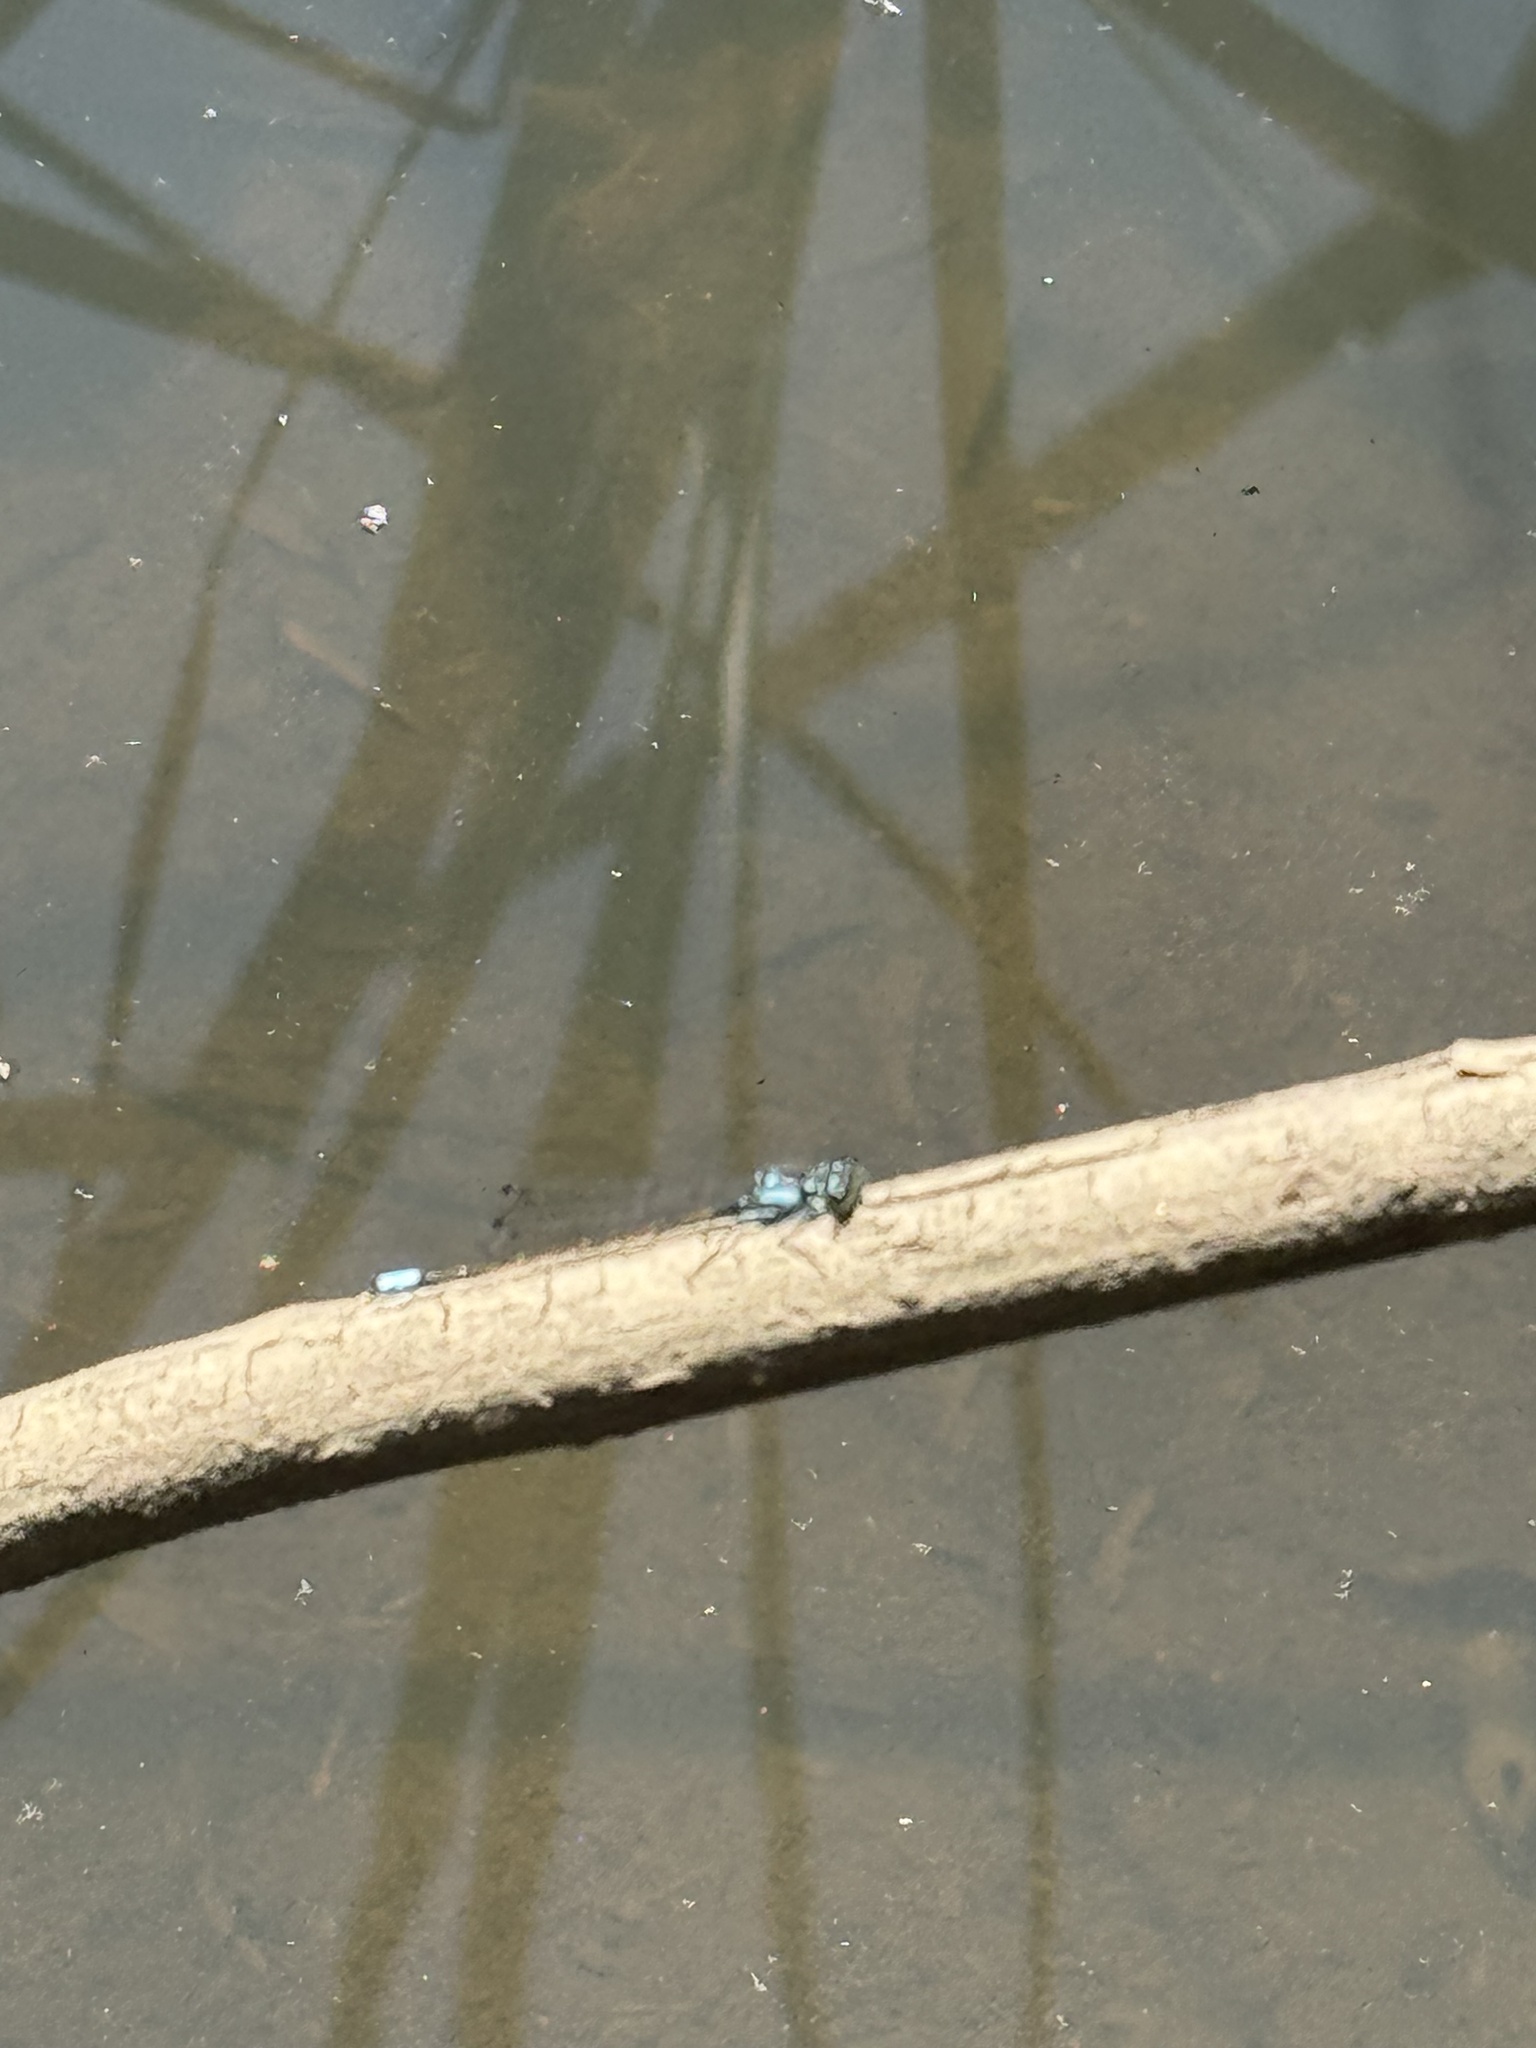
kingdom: Animalia
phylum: Arthropoda
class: Insecta
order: Odonata
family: Coenagrionidae
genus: Ischnura
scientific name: Ischnura cervula
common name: Pacific forktail
